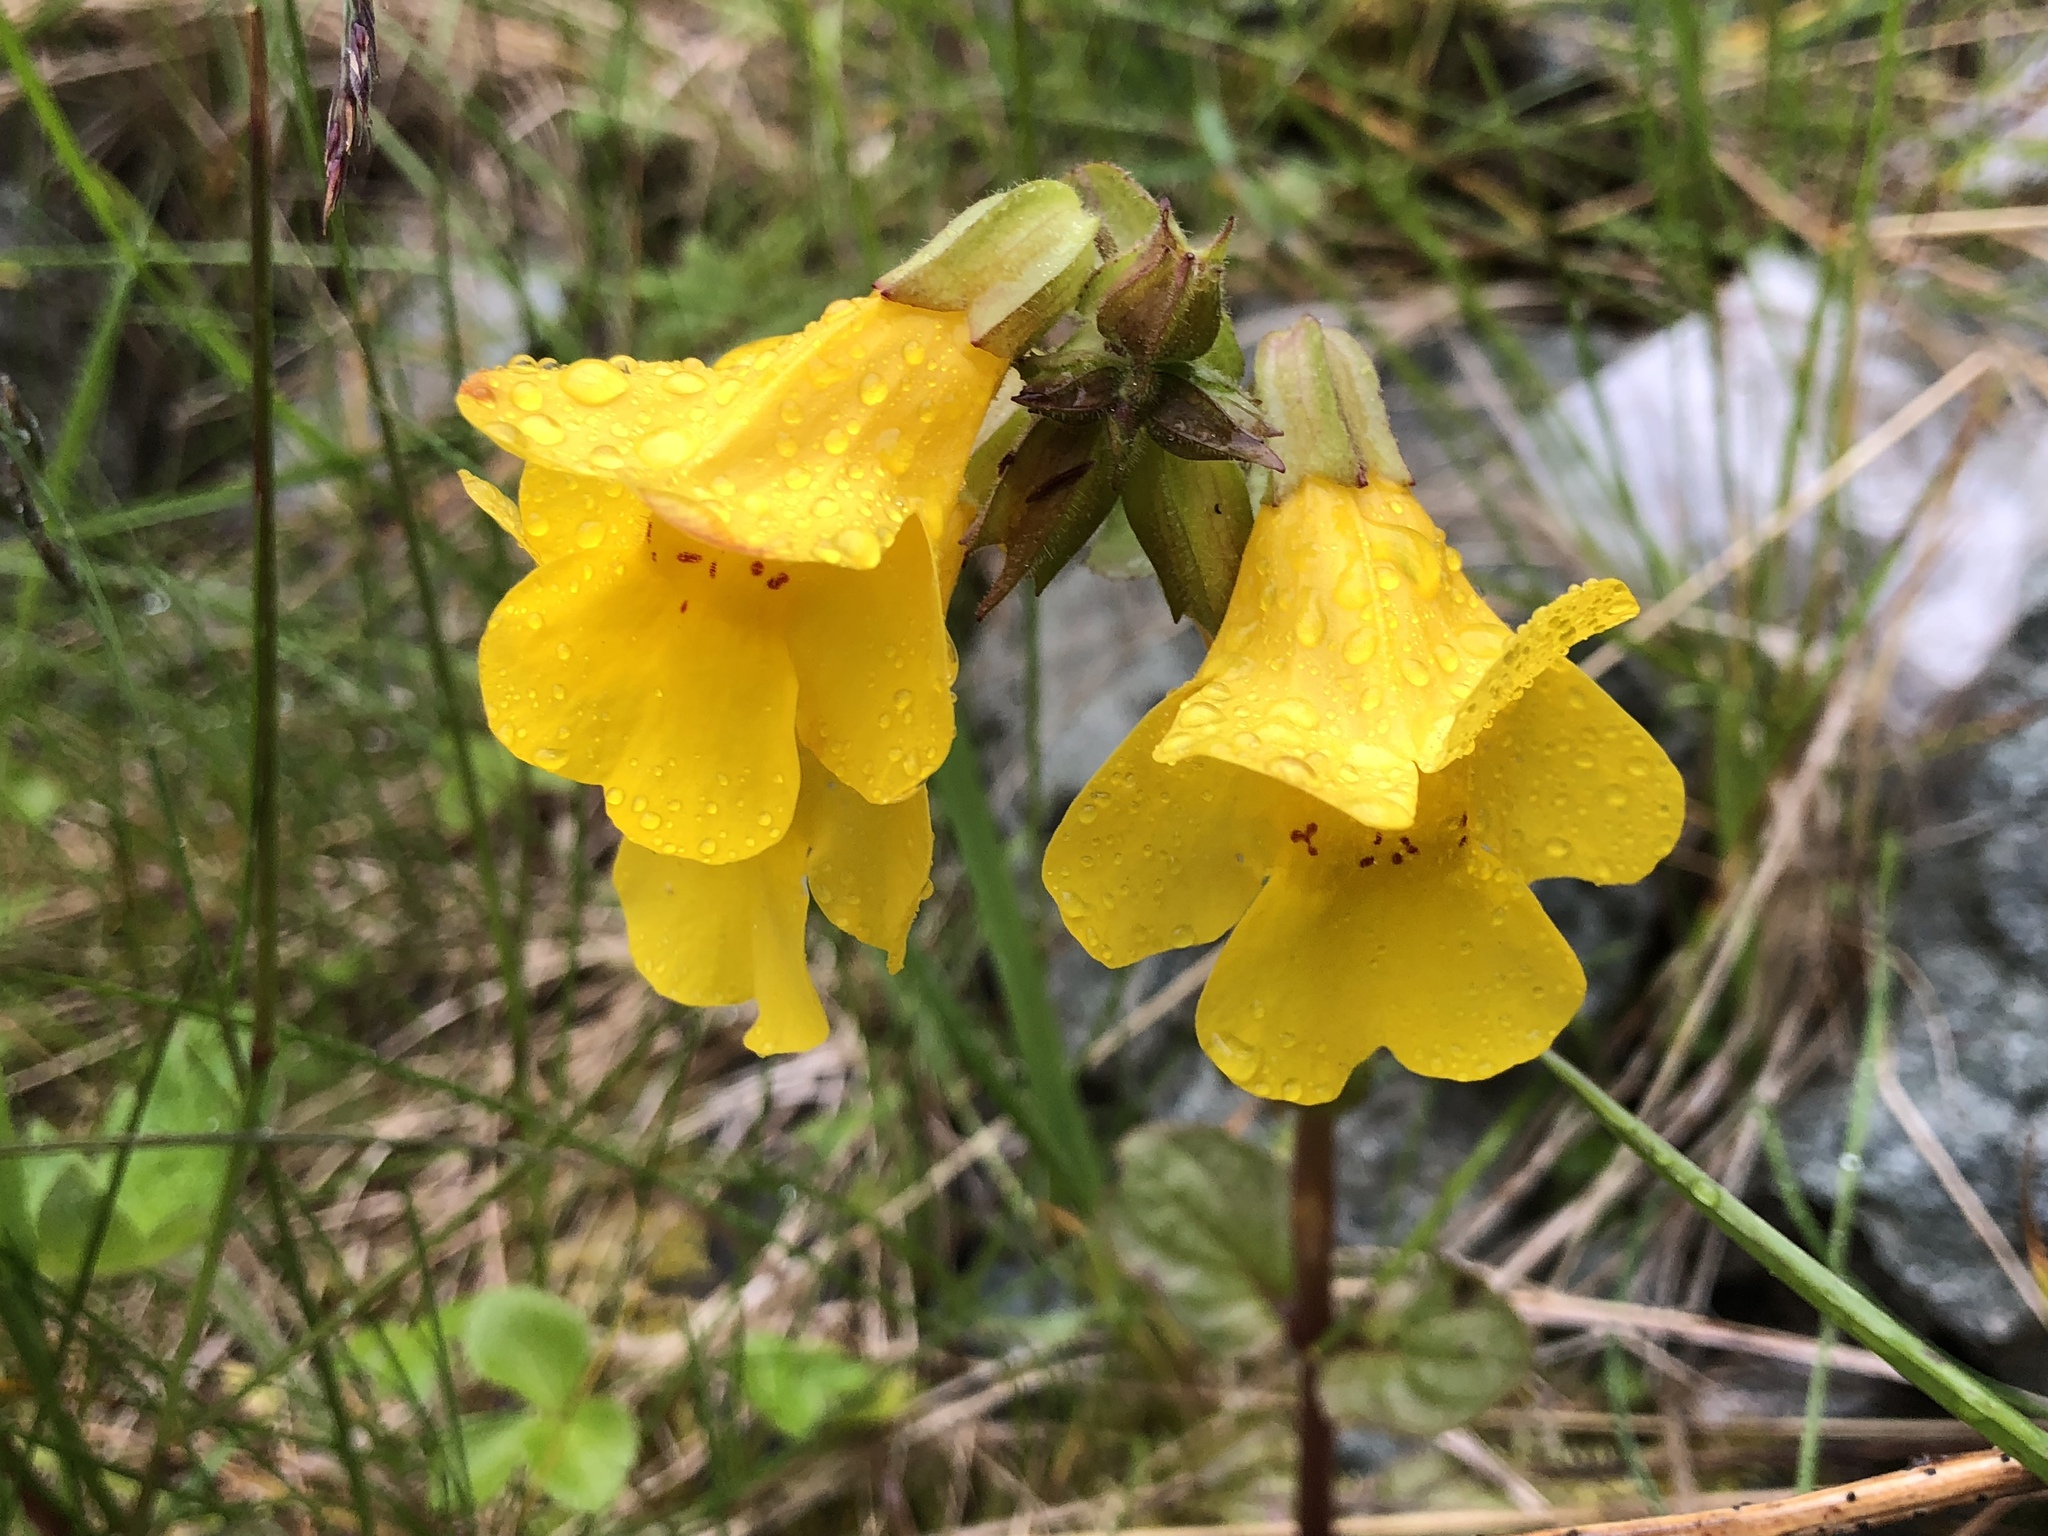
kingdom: Plantae
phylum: Tracheophyta
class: Magnoliopsida
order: Lamiales
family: Phrymaceae
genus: Erythranthe
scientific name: Erythranthe guttata
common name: Monkeyflower
